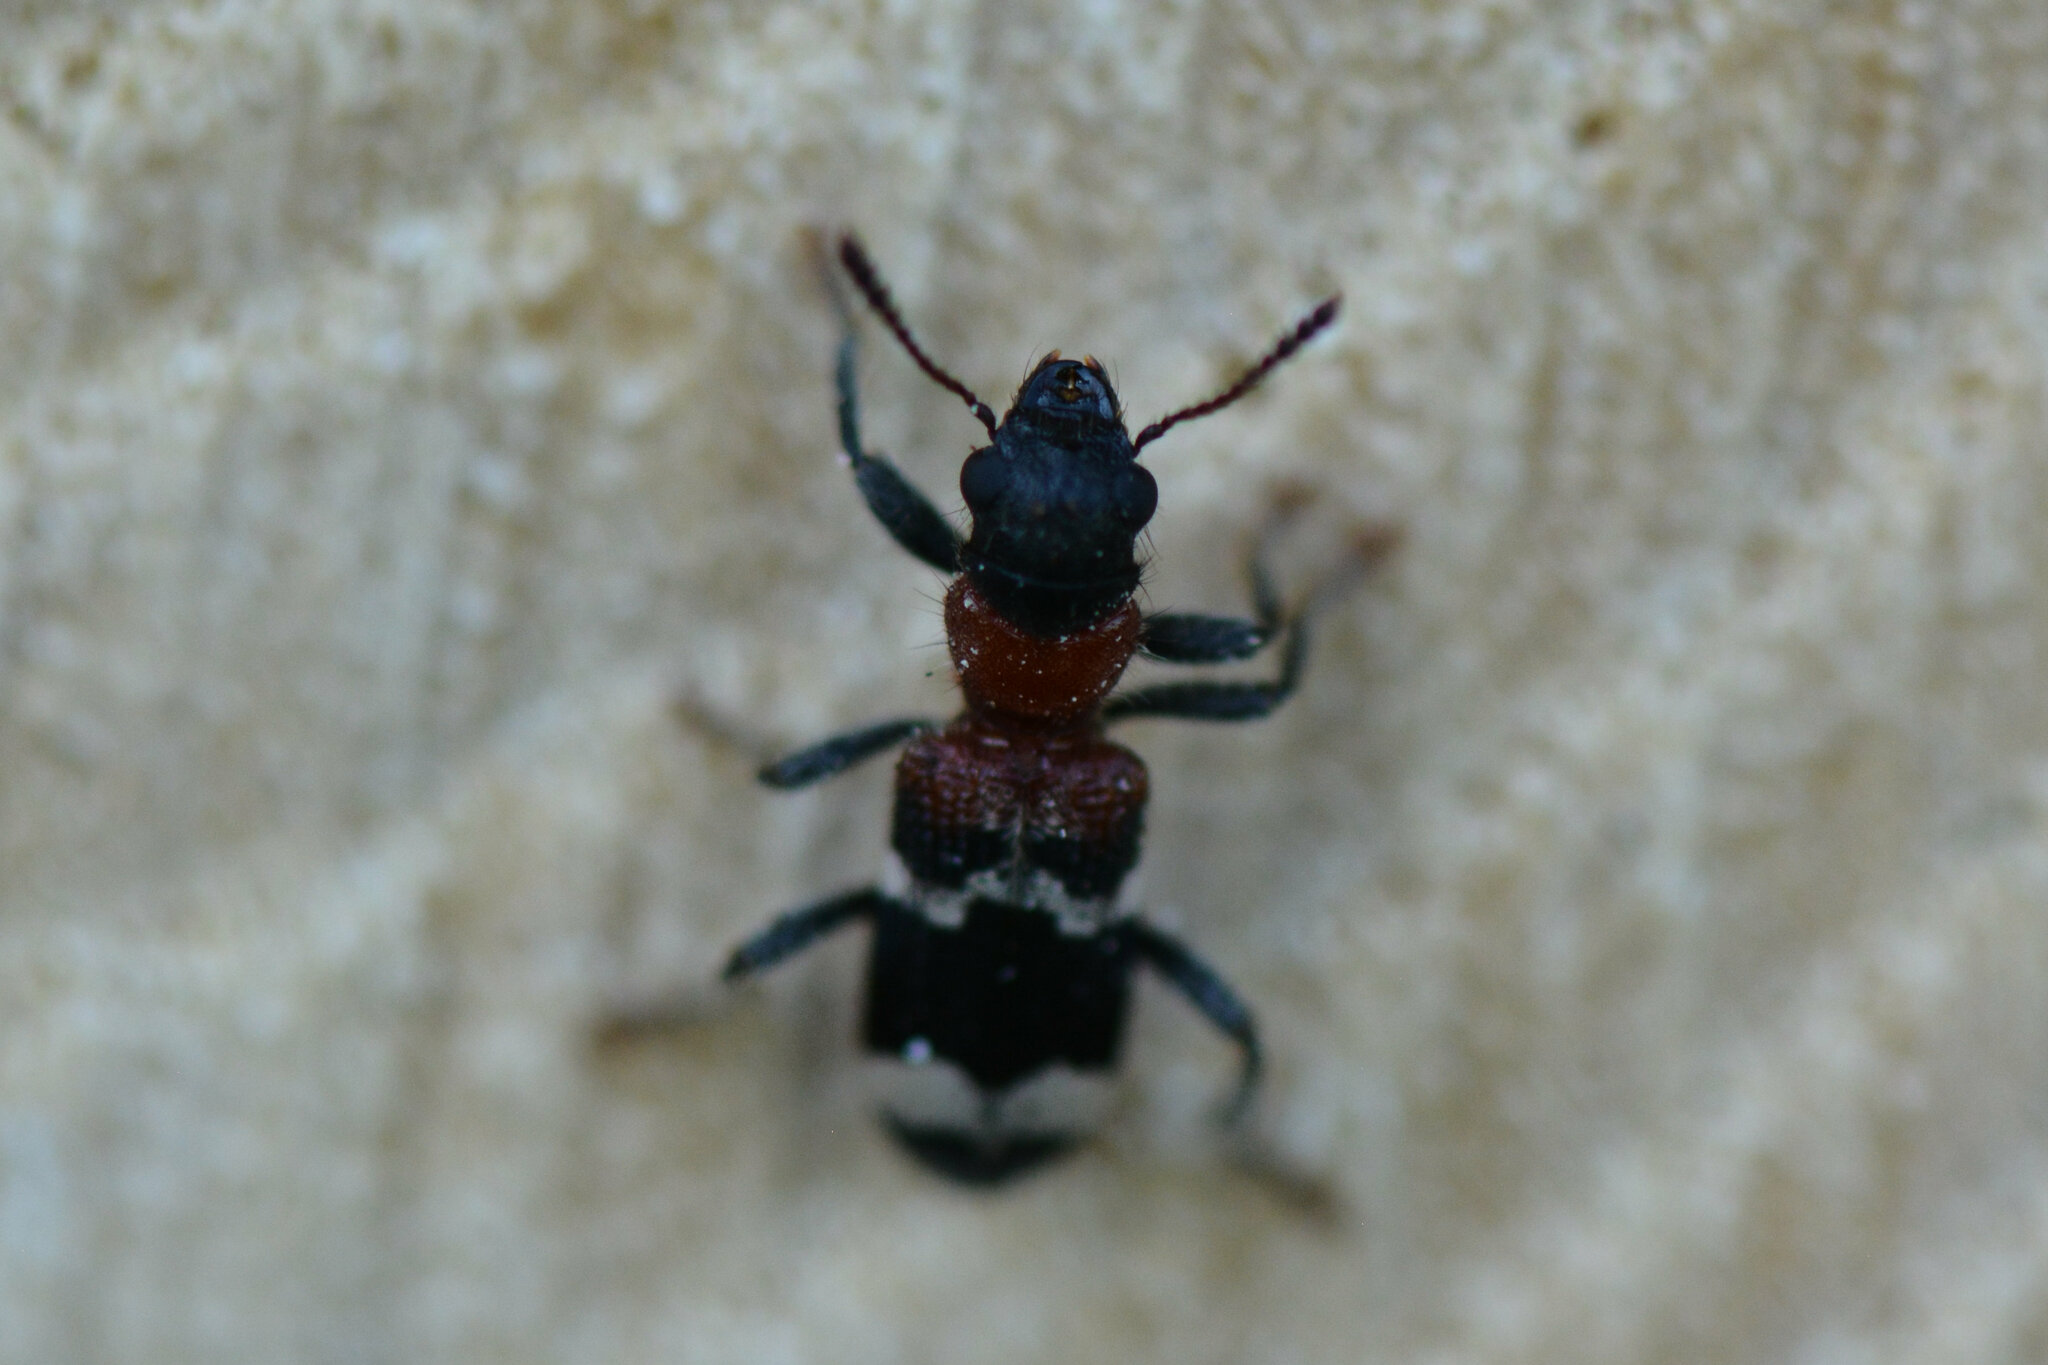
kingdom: Animalia
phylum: Arthropoda
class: Insecta
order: Coleoptera
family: Cleridae
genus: Thanasimus
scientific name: Thanasimus formicarius
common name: Ant beetle
